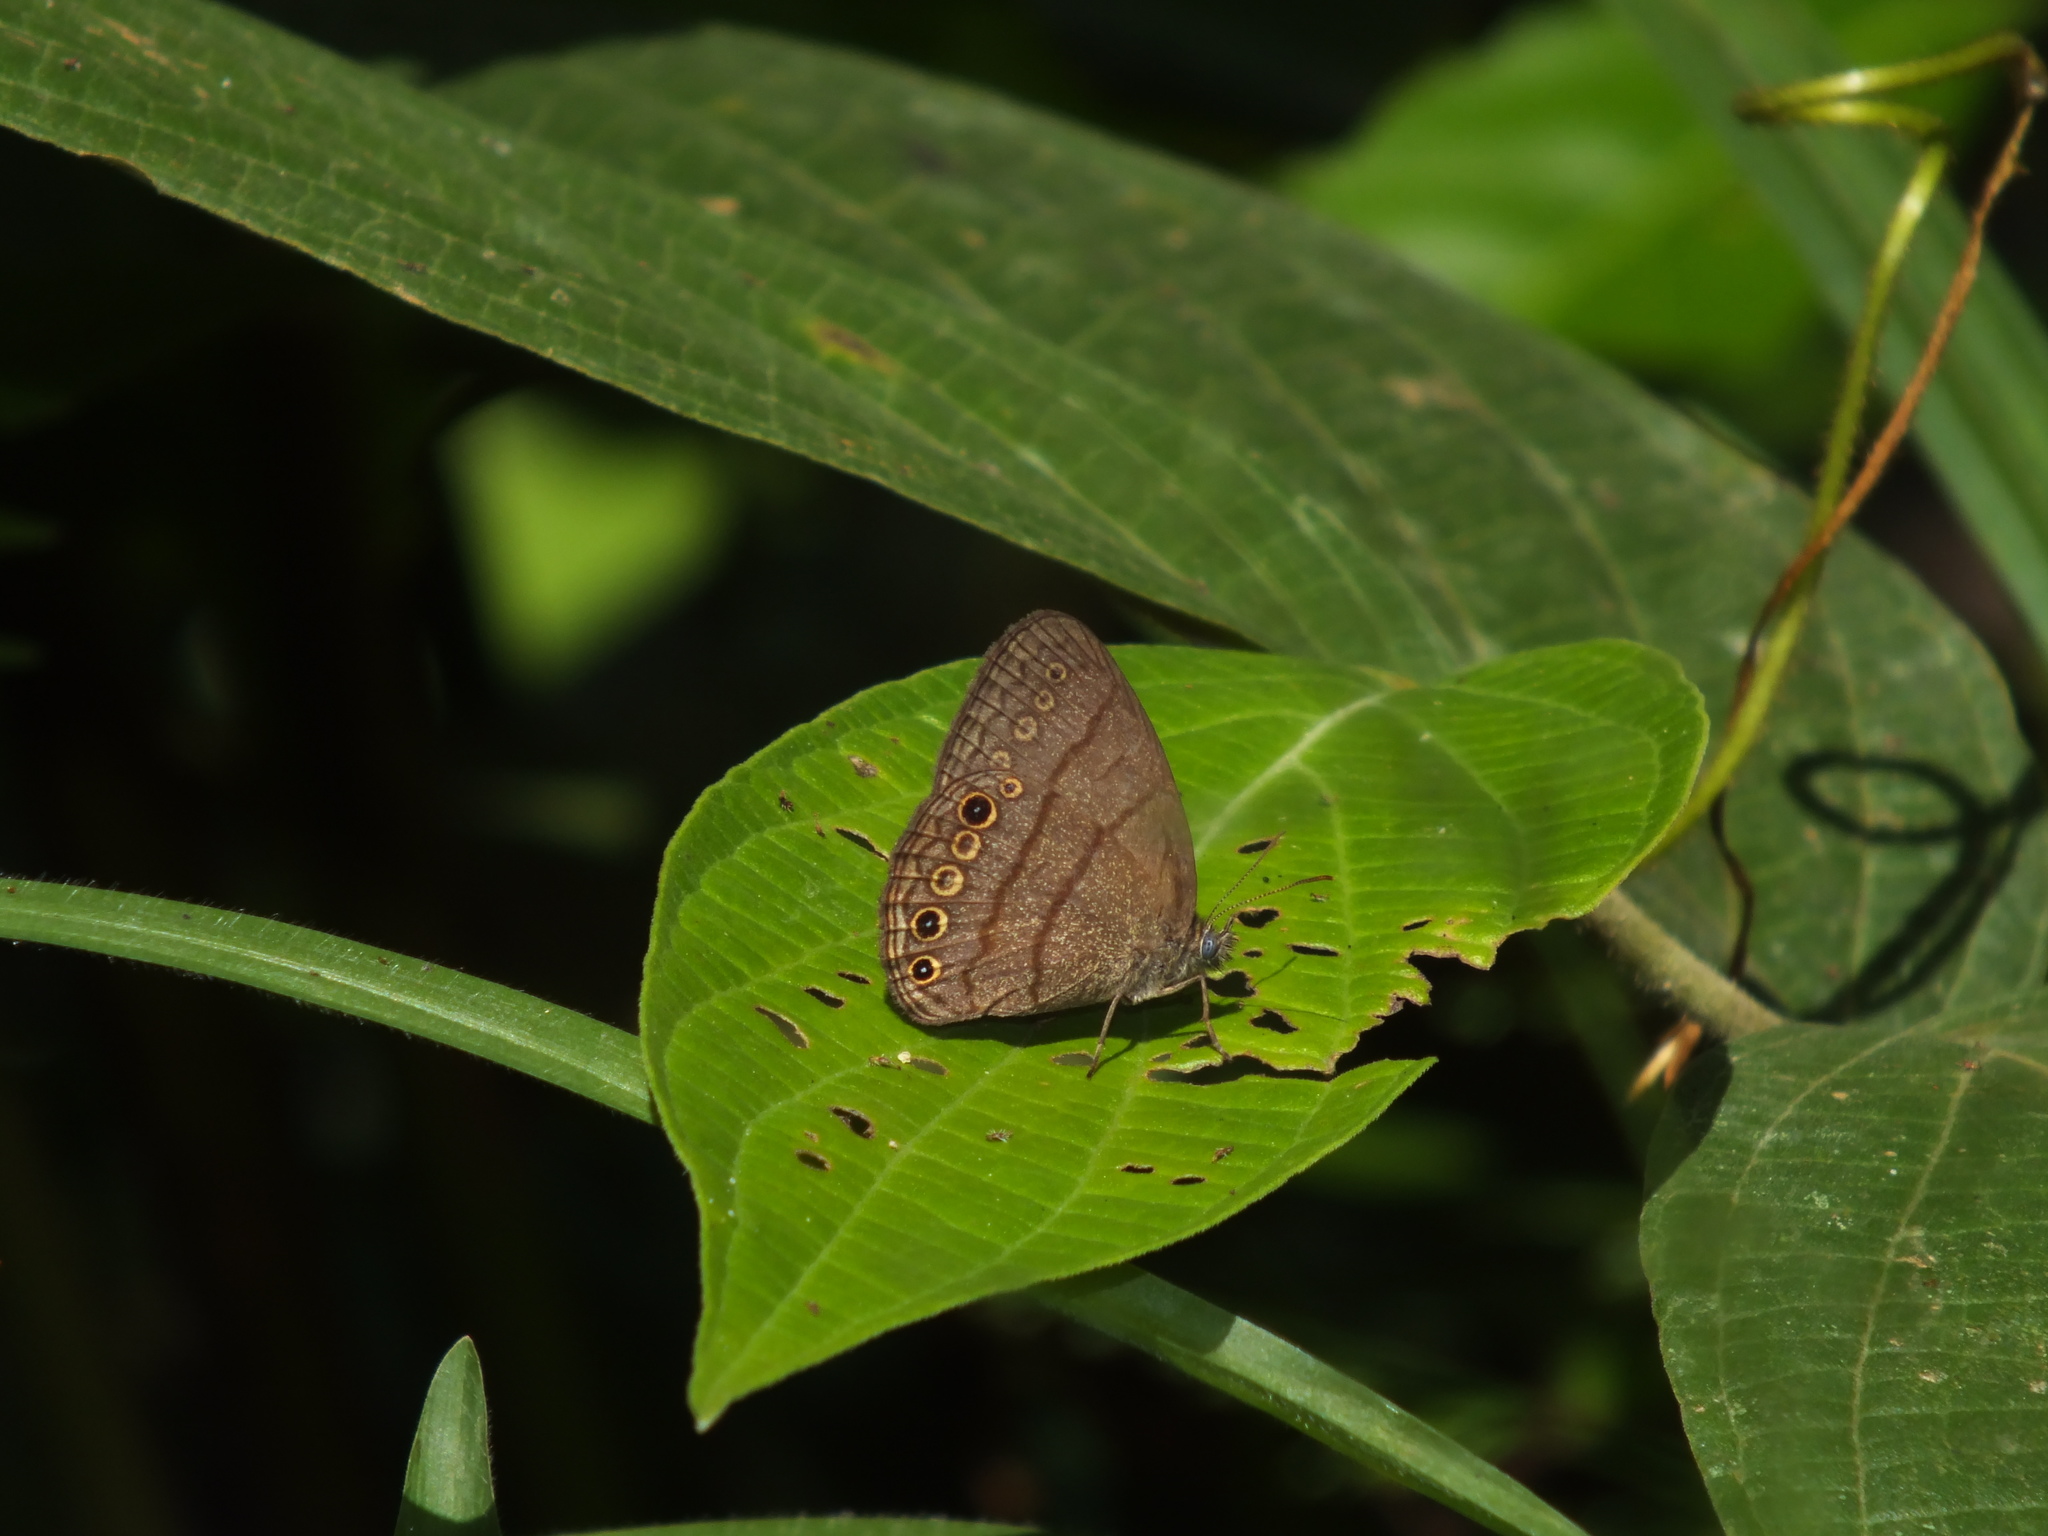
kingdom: Animalia
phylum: Arthropoda
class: Insecta
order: Lepidoptera
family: Nymphalidae
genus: Hermeuptychia
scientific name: Hermeuptychia hermes
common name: Hermes satyr
